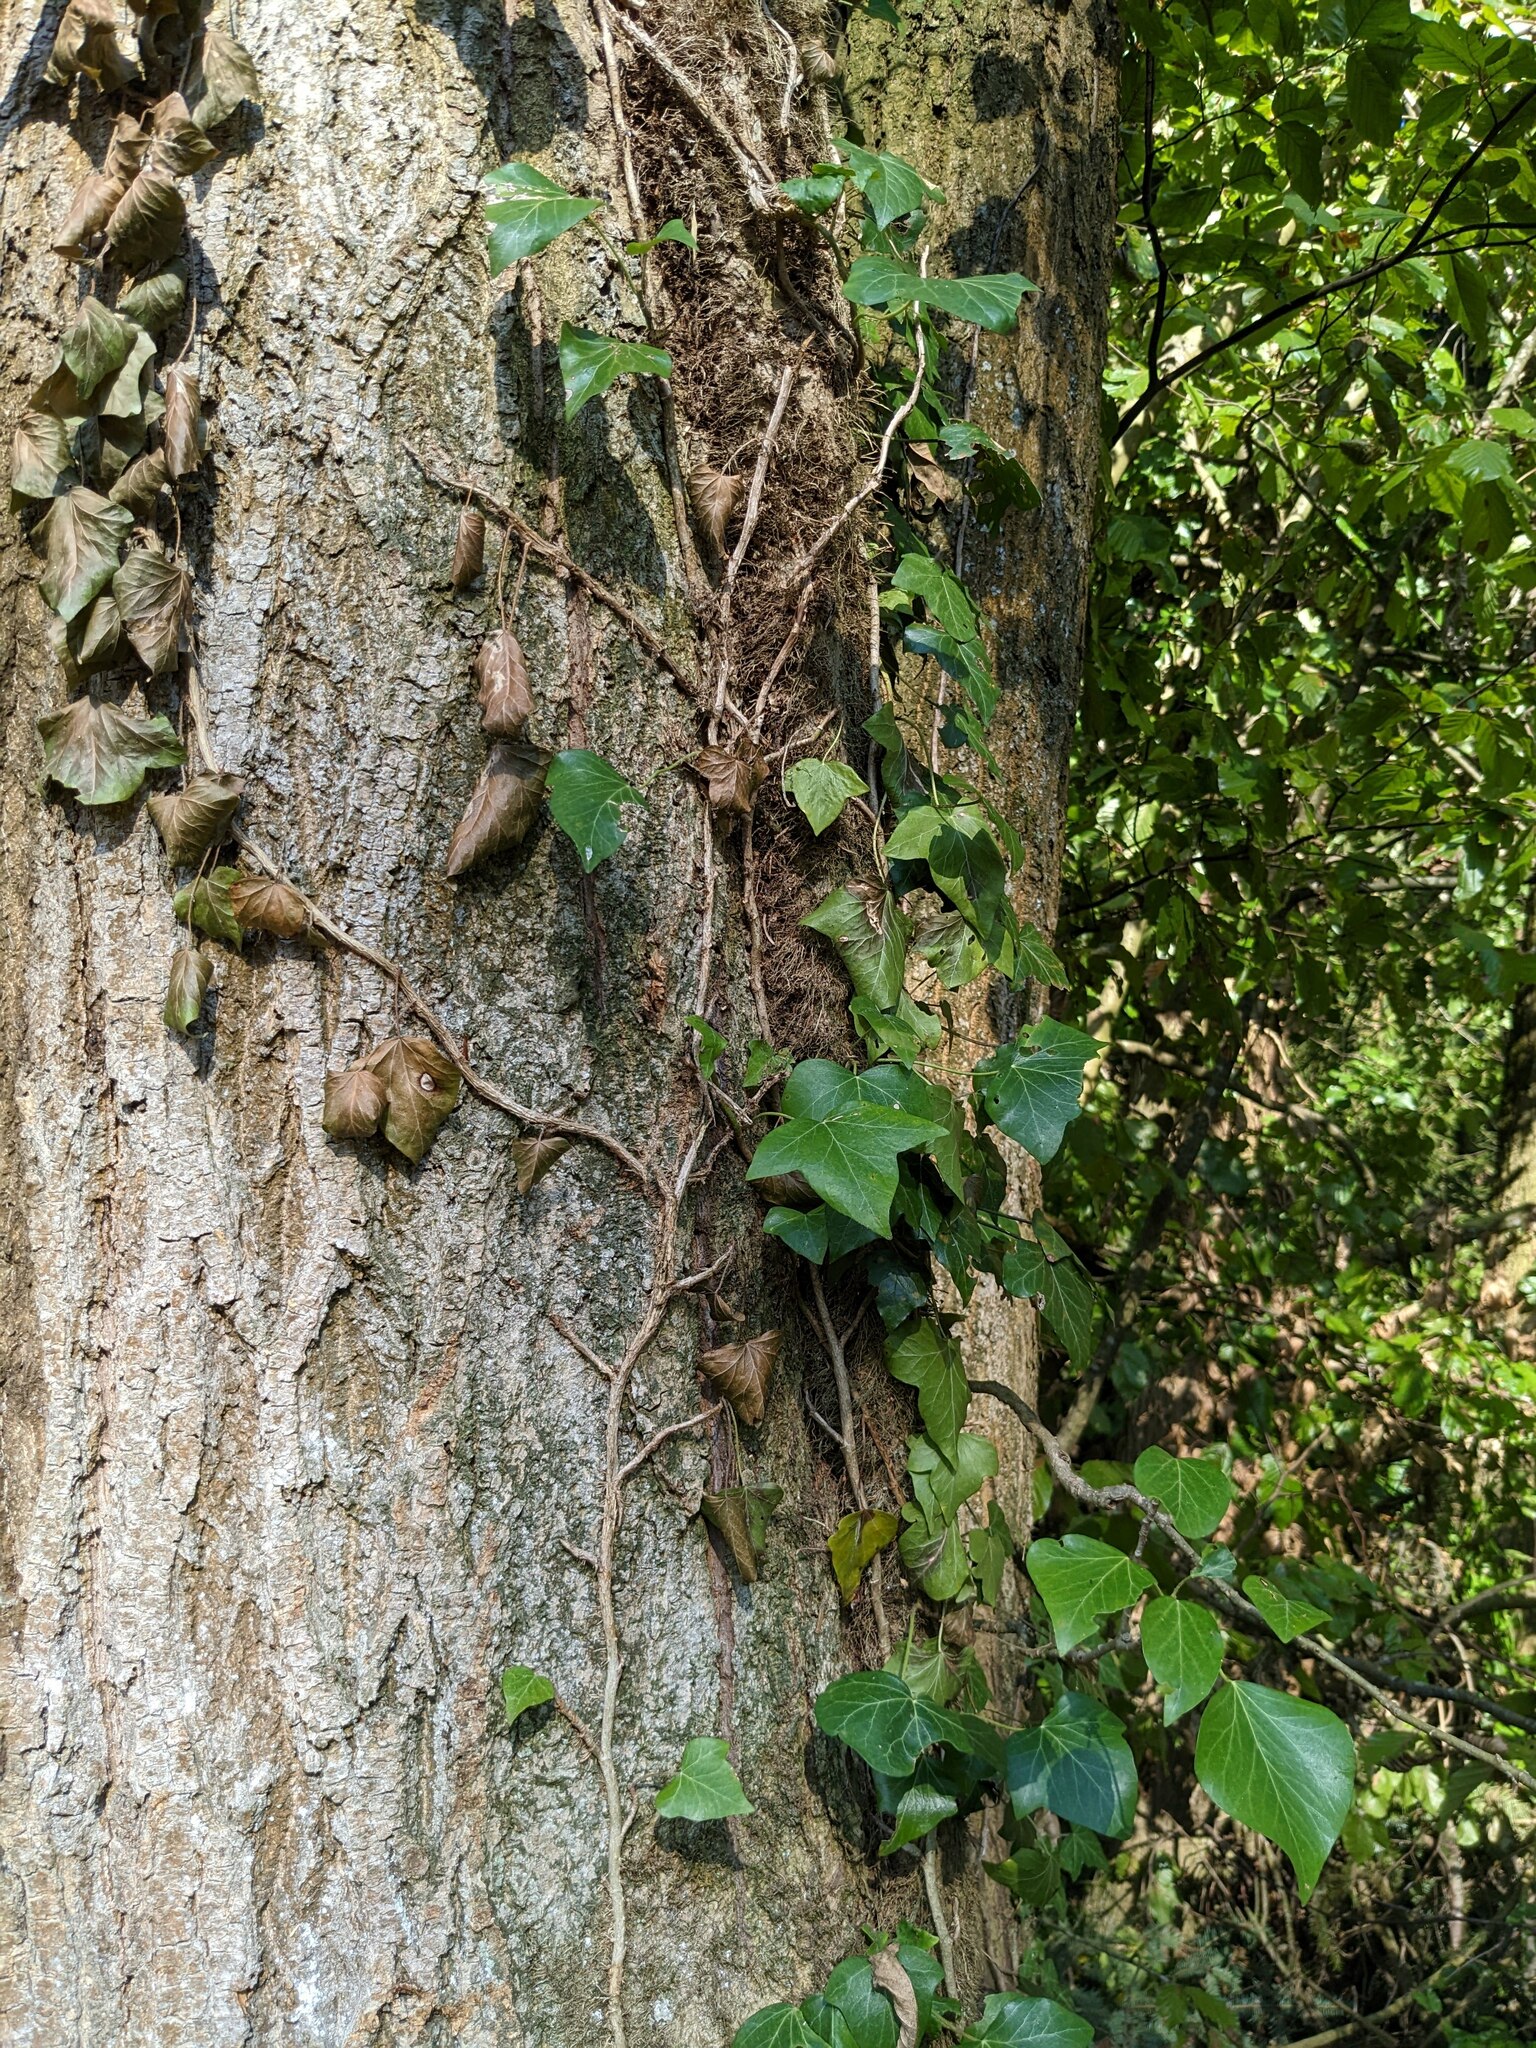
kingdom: Plantae
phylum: Tracheophyta
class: Magnoliopsida
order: Apiales
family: Araliaceae
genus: Hedera
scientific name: Hedera helix
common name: Ivy
